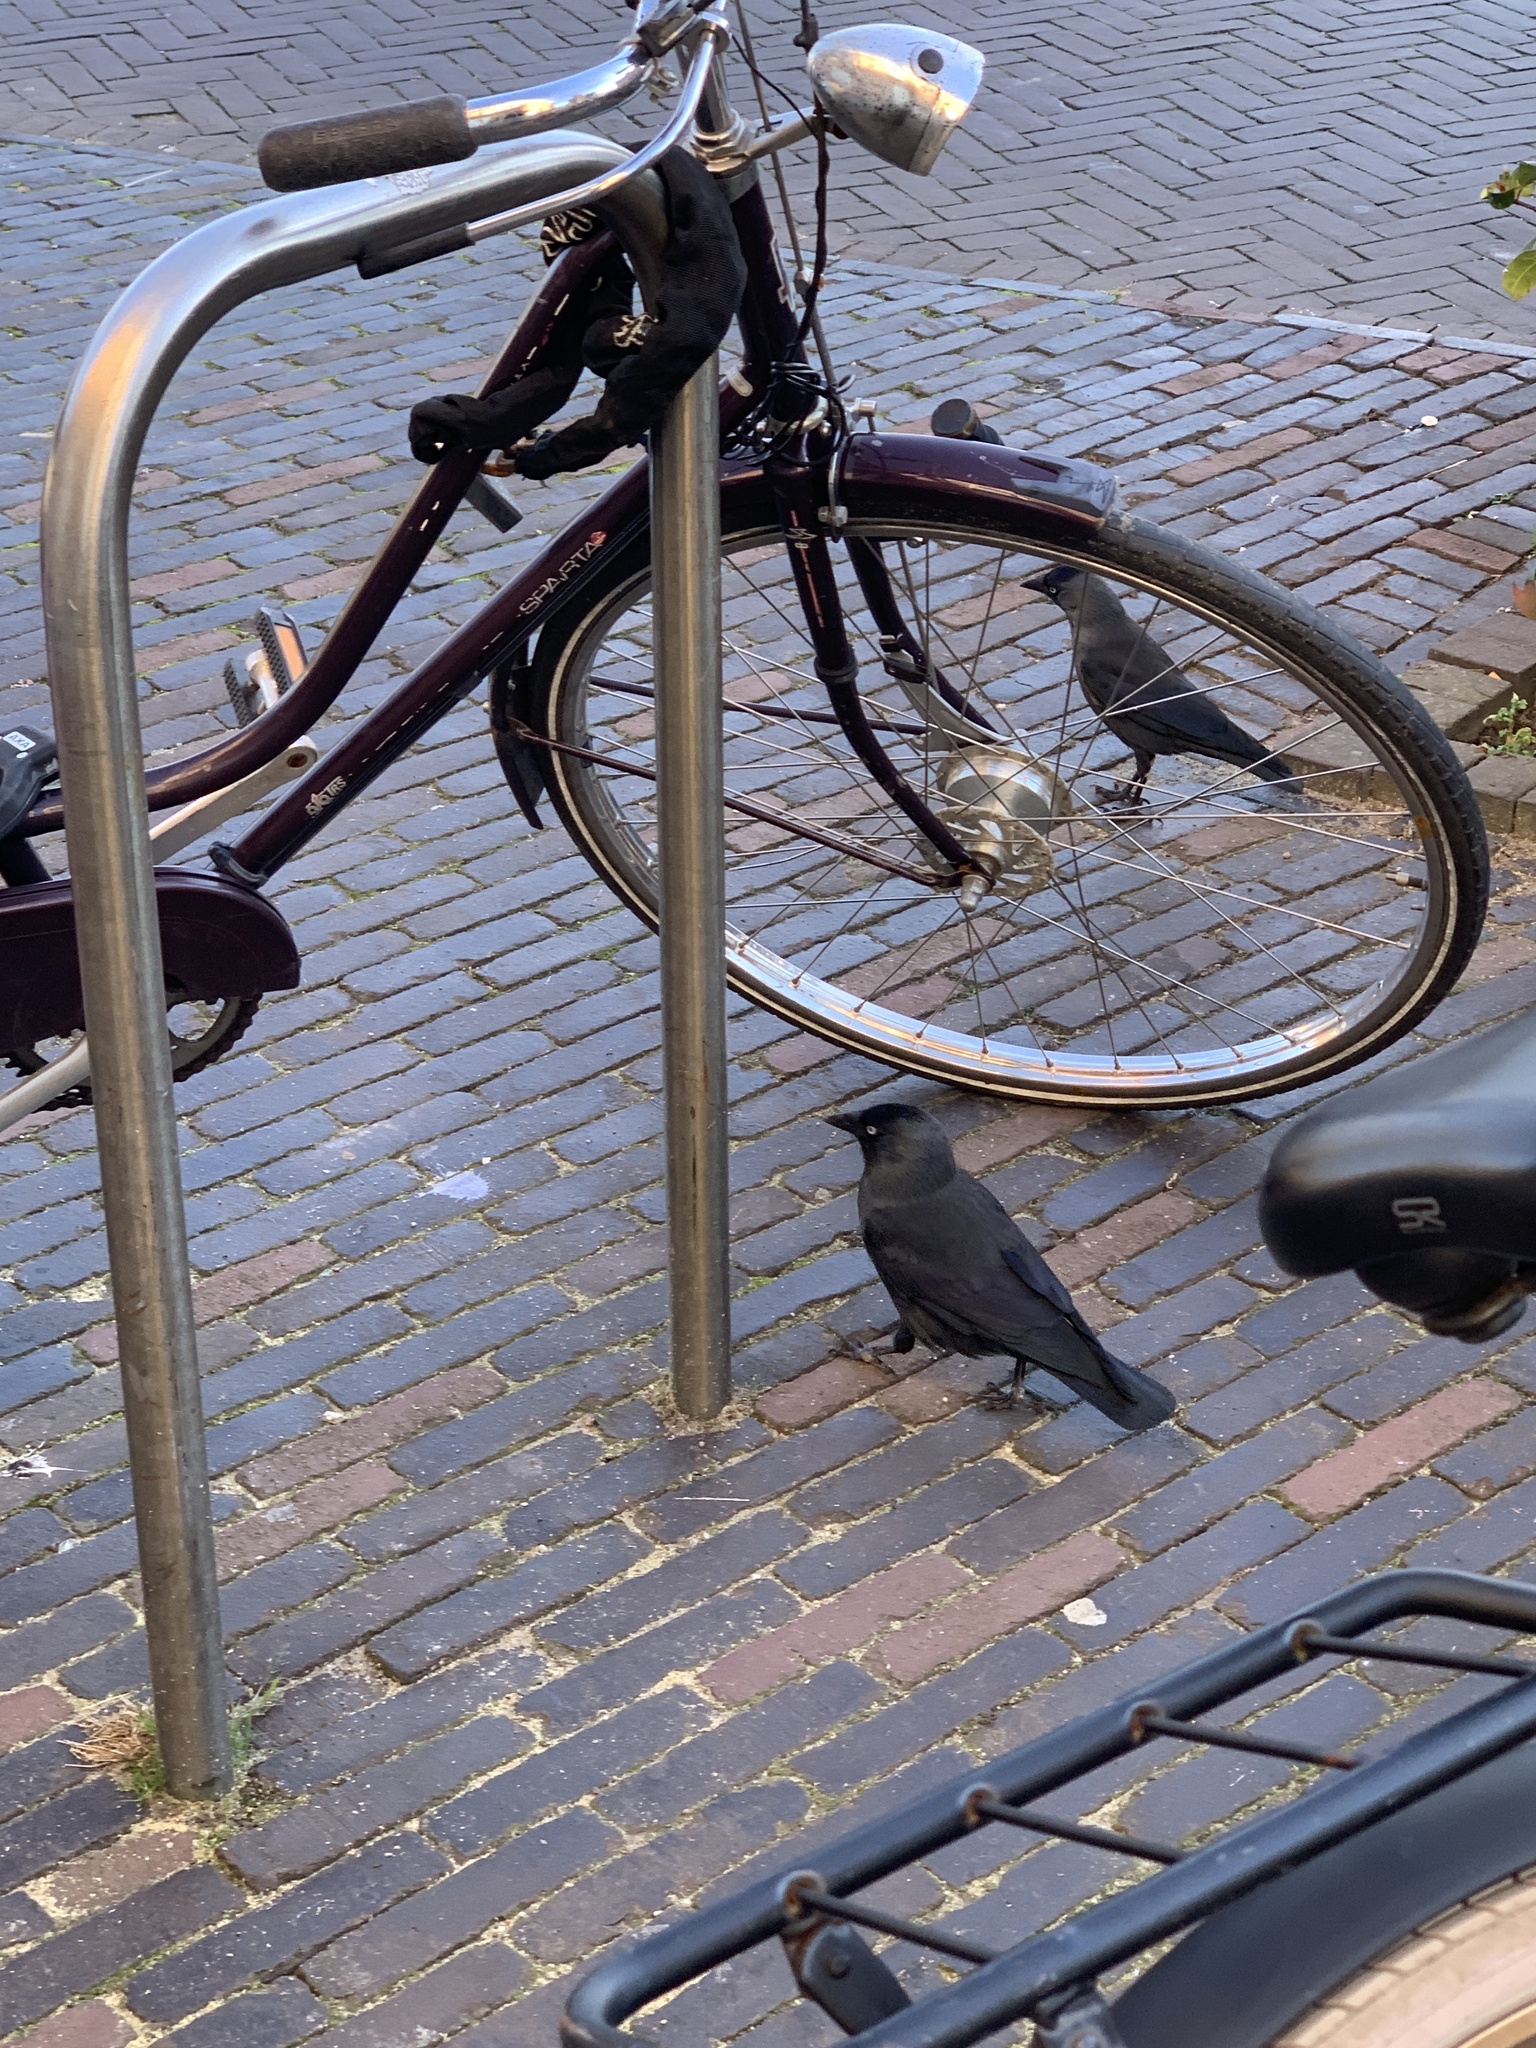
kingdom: Animalia
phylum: Chordata
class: Aves
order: Passeriformes
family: Corvidae
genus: Coloeus
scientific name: Coloeus monedula
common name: Western jackdaw
